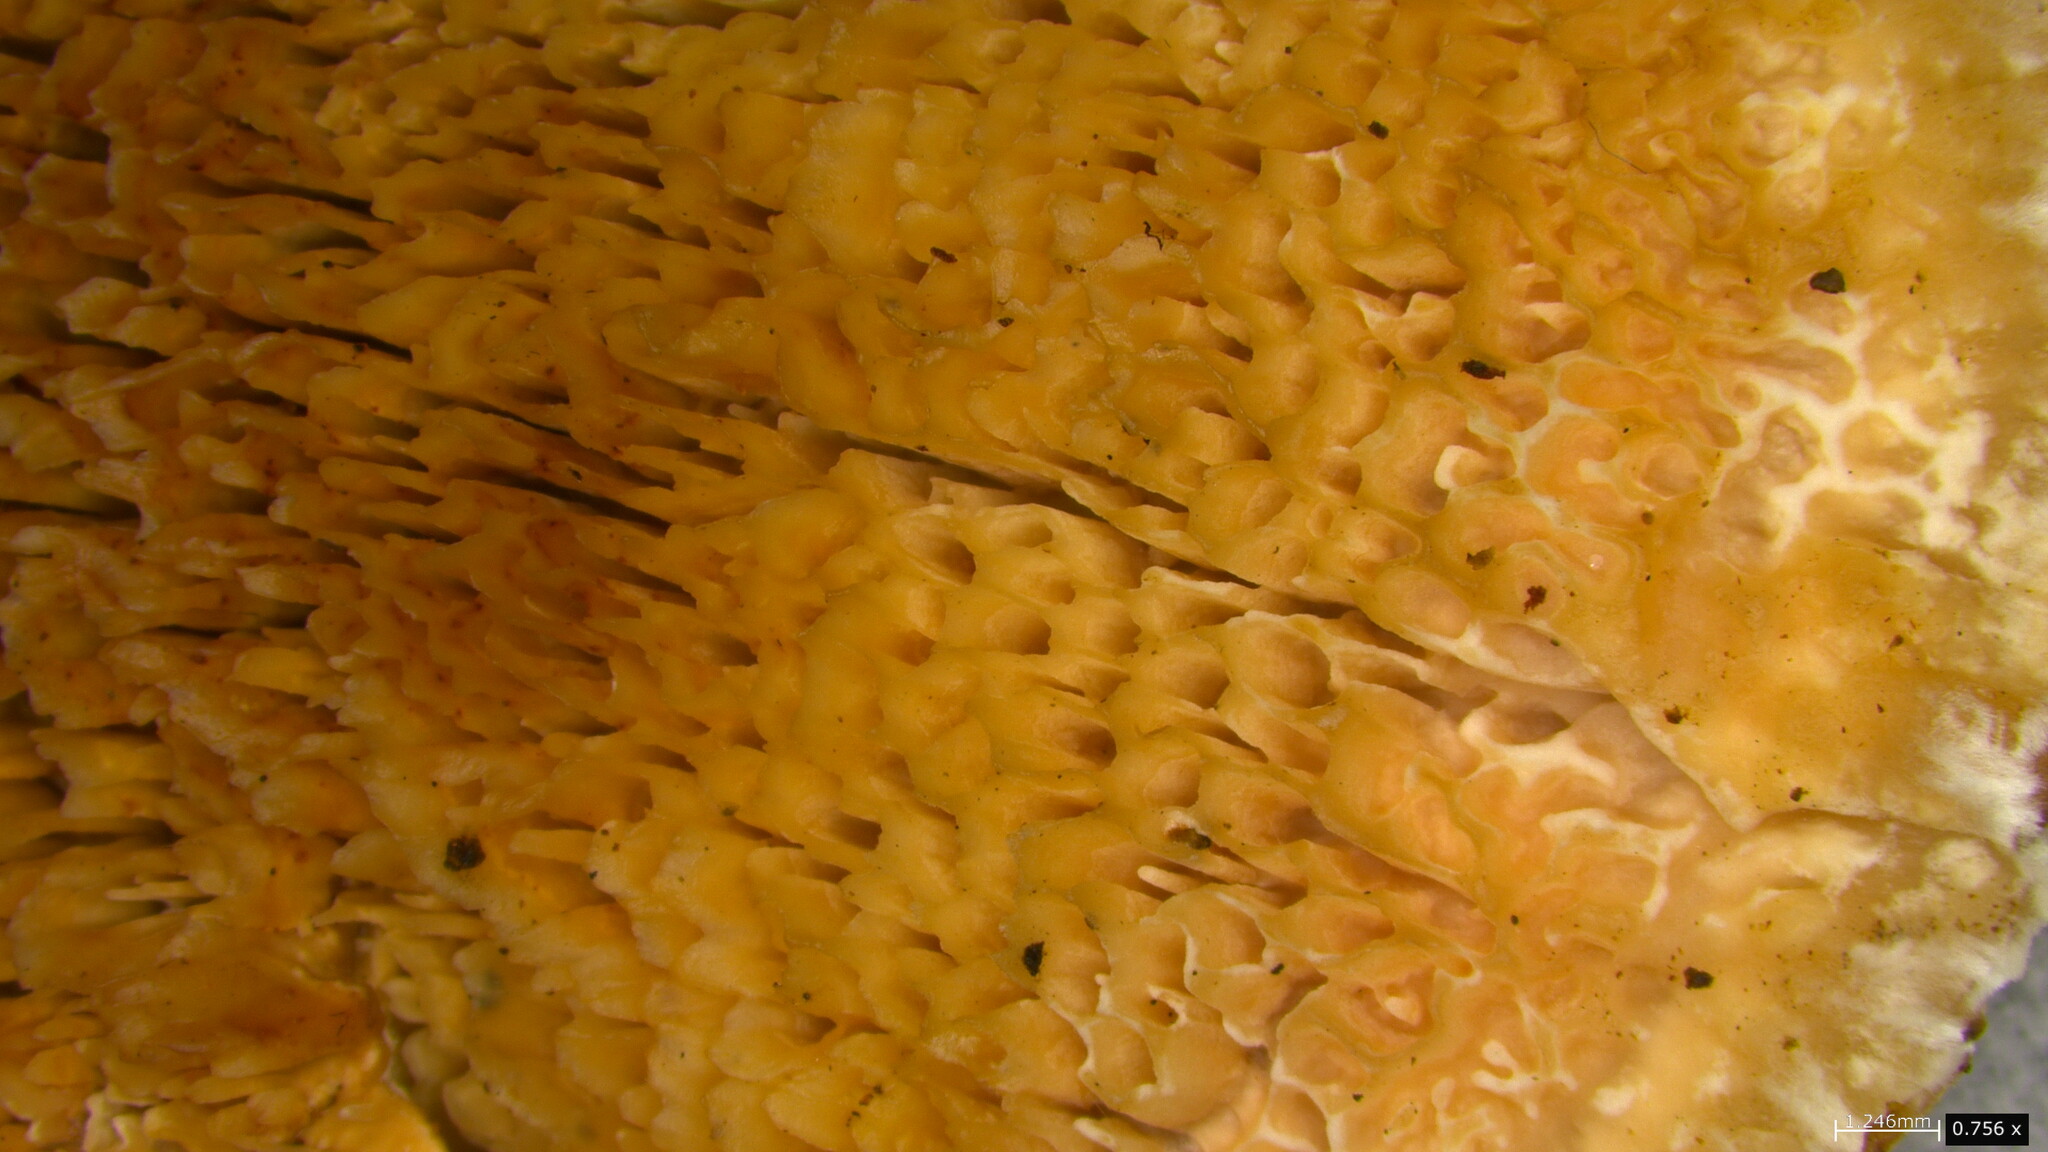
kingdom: Fungi
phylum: Basidiomycota
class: Agaricomycetes
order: Polyporales
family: Podoscyphaceae
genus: Abortiporus
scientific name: Abortiporus biennis
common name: Blushing rosette
